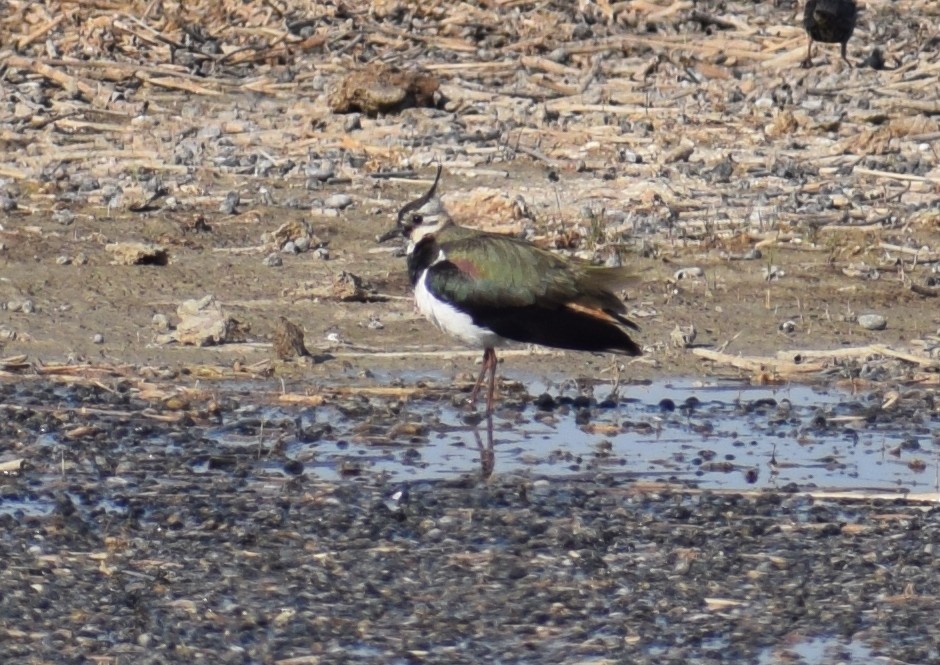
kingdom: Animalia
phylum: Chordata
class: Aves
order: Charadriiformes
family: Charadriidae
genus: Vanellus
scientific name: Vanellus vanellus
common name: Northern lapwing
